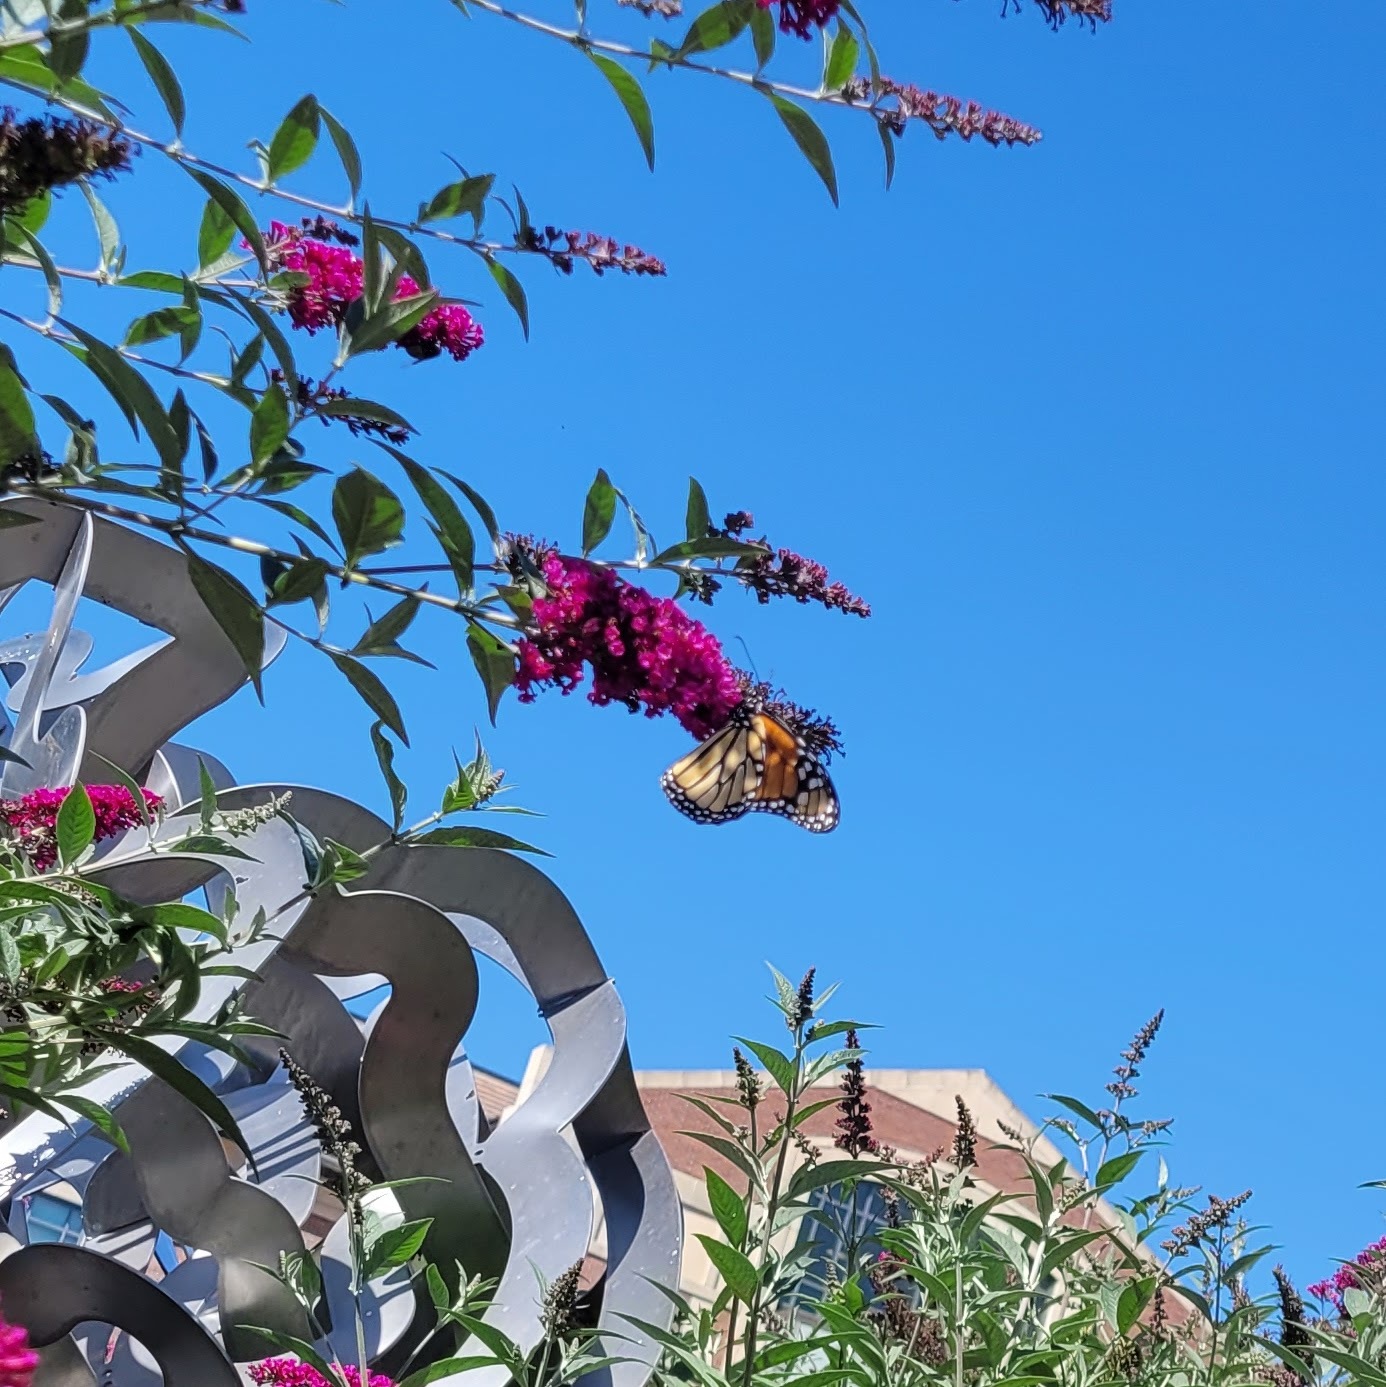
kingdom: Animalia
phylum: Arthropoda
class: Insecta
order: Lepidoptera
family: Nymphalidae
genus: Danaus
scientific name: Danaus plexippus
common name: Monarch
